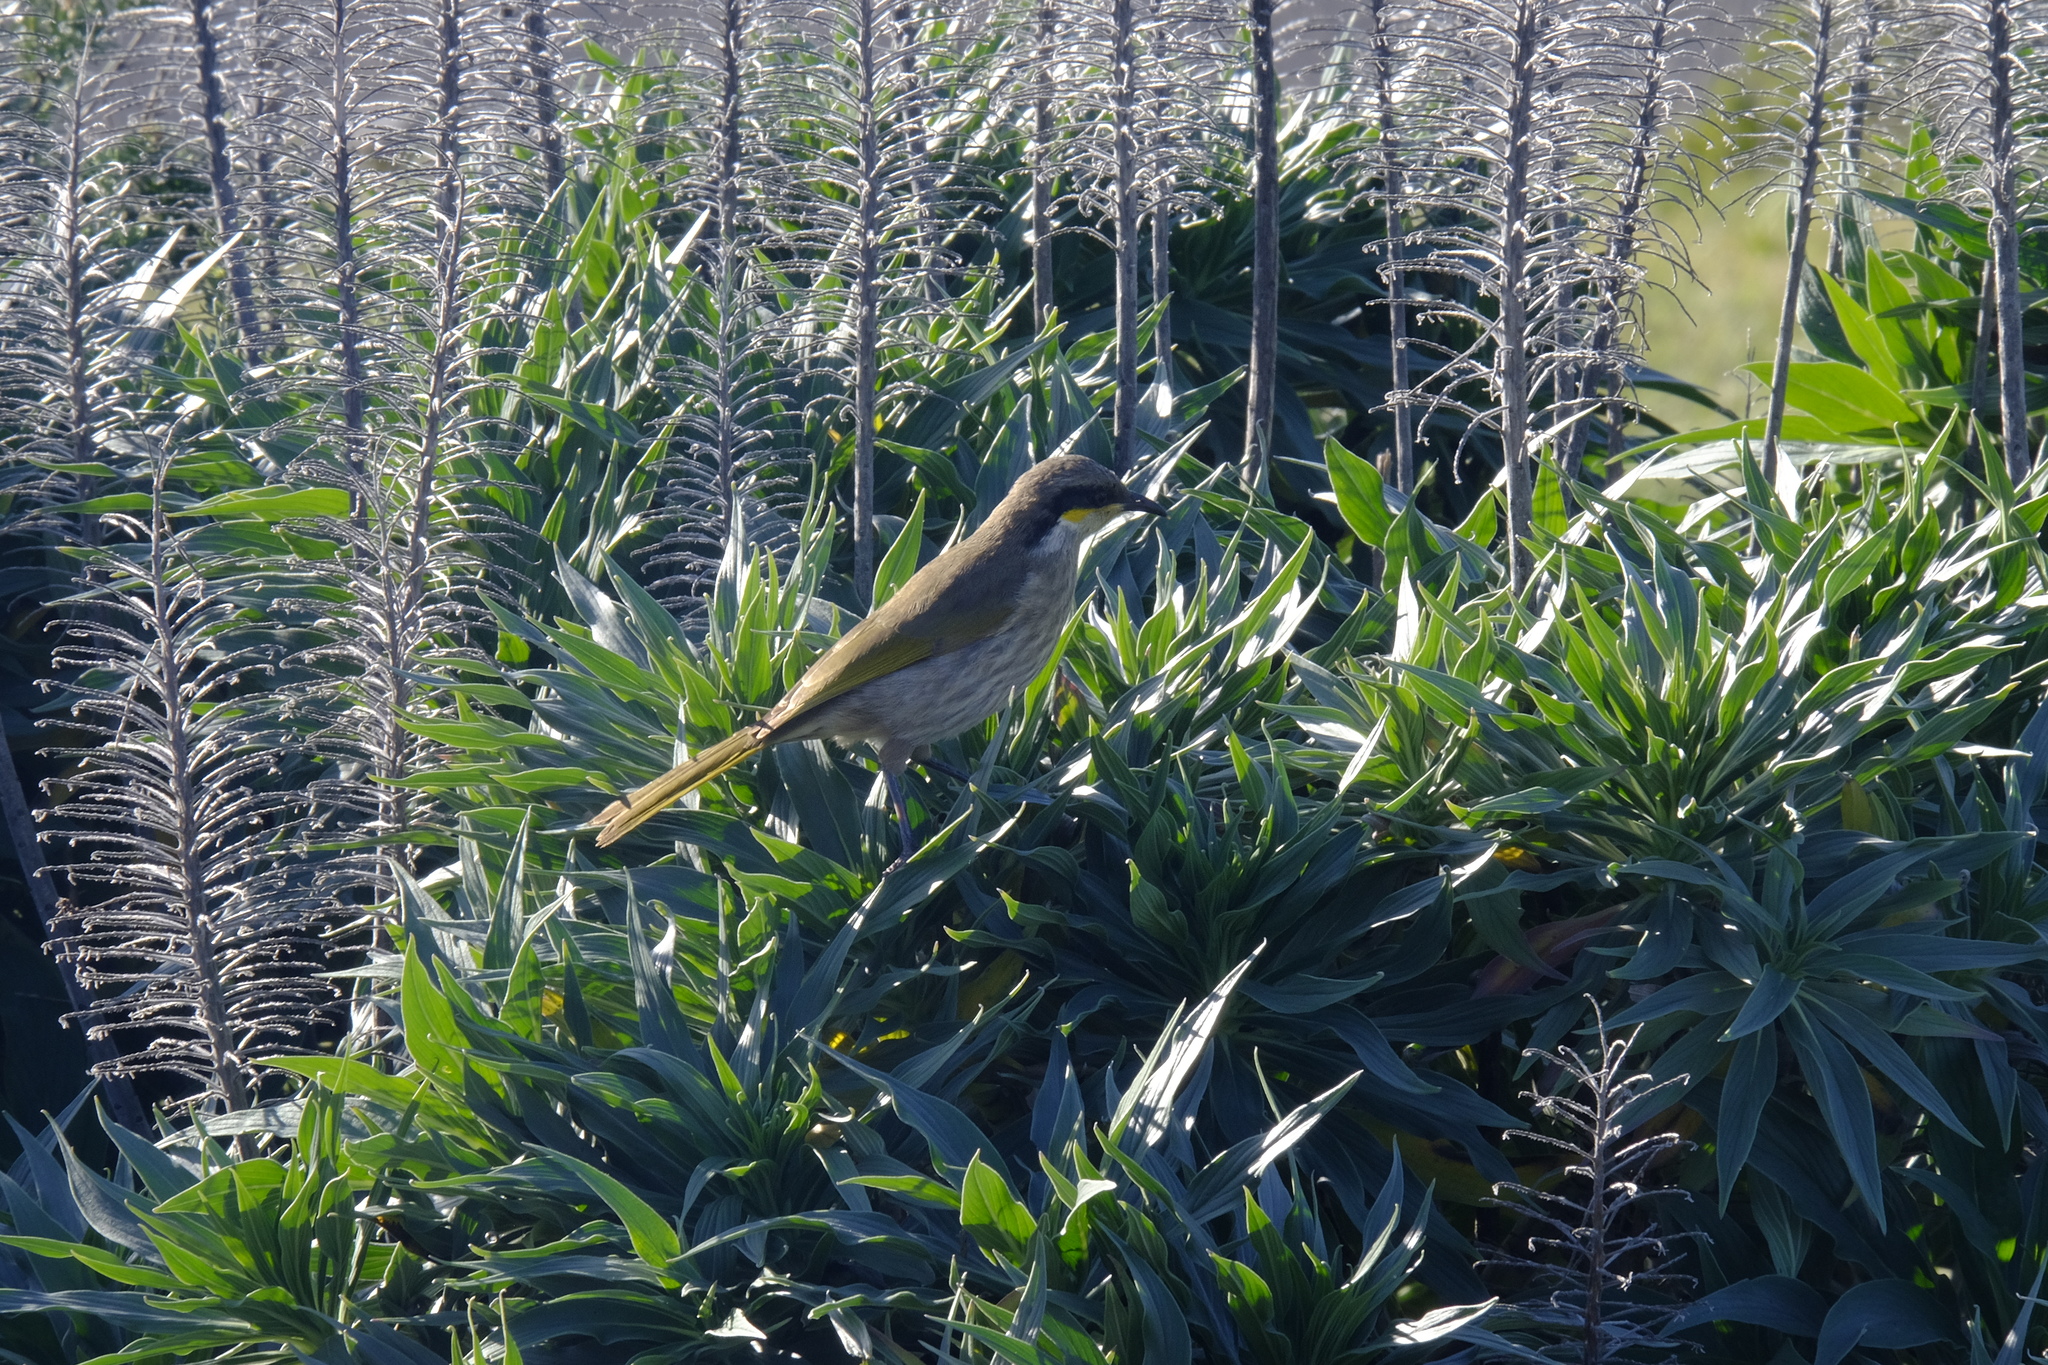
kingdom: Animalia
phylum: Chordata
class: Aves
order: Passeriformes
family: Meliphagidae
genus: Gavicalis
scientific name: Gavicalis virescens
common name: Singing honeyeater
